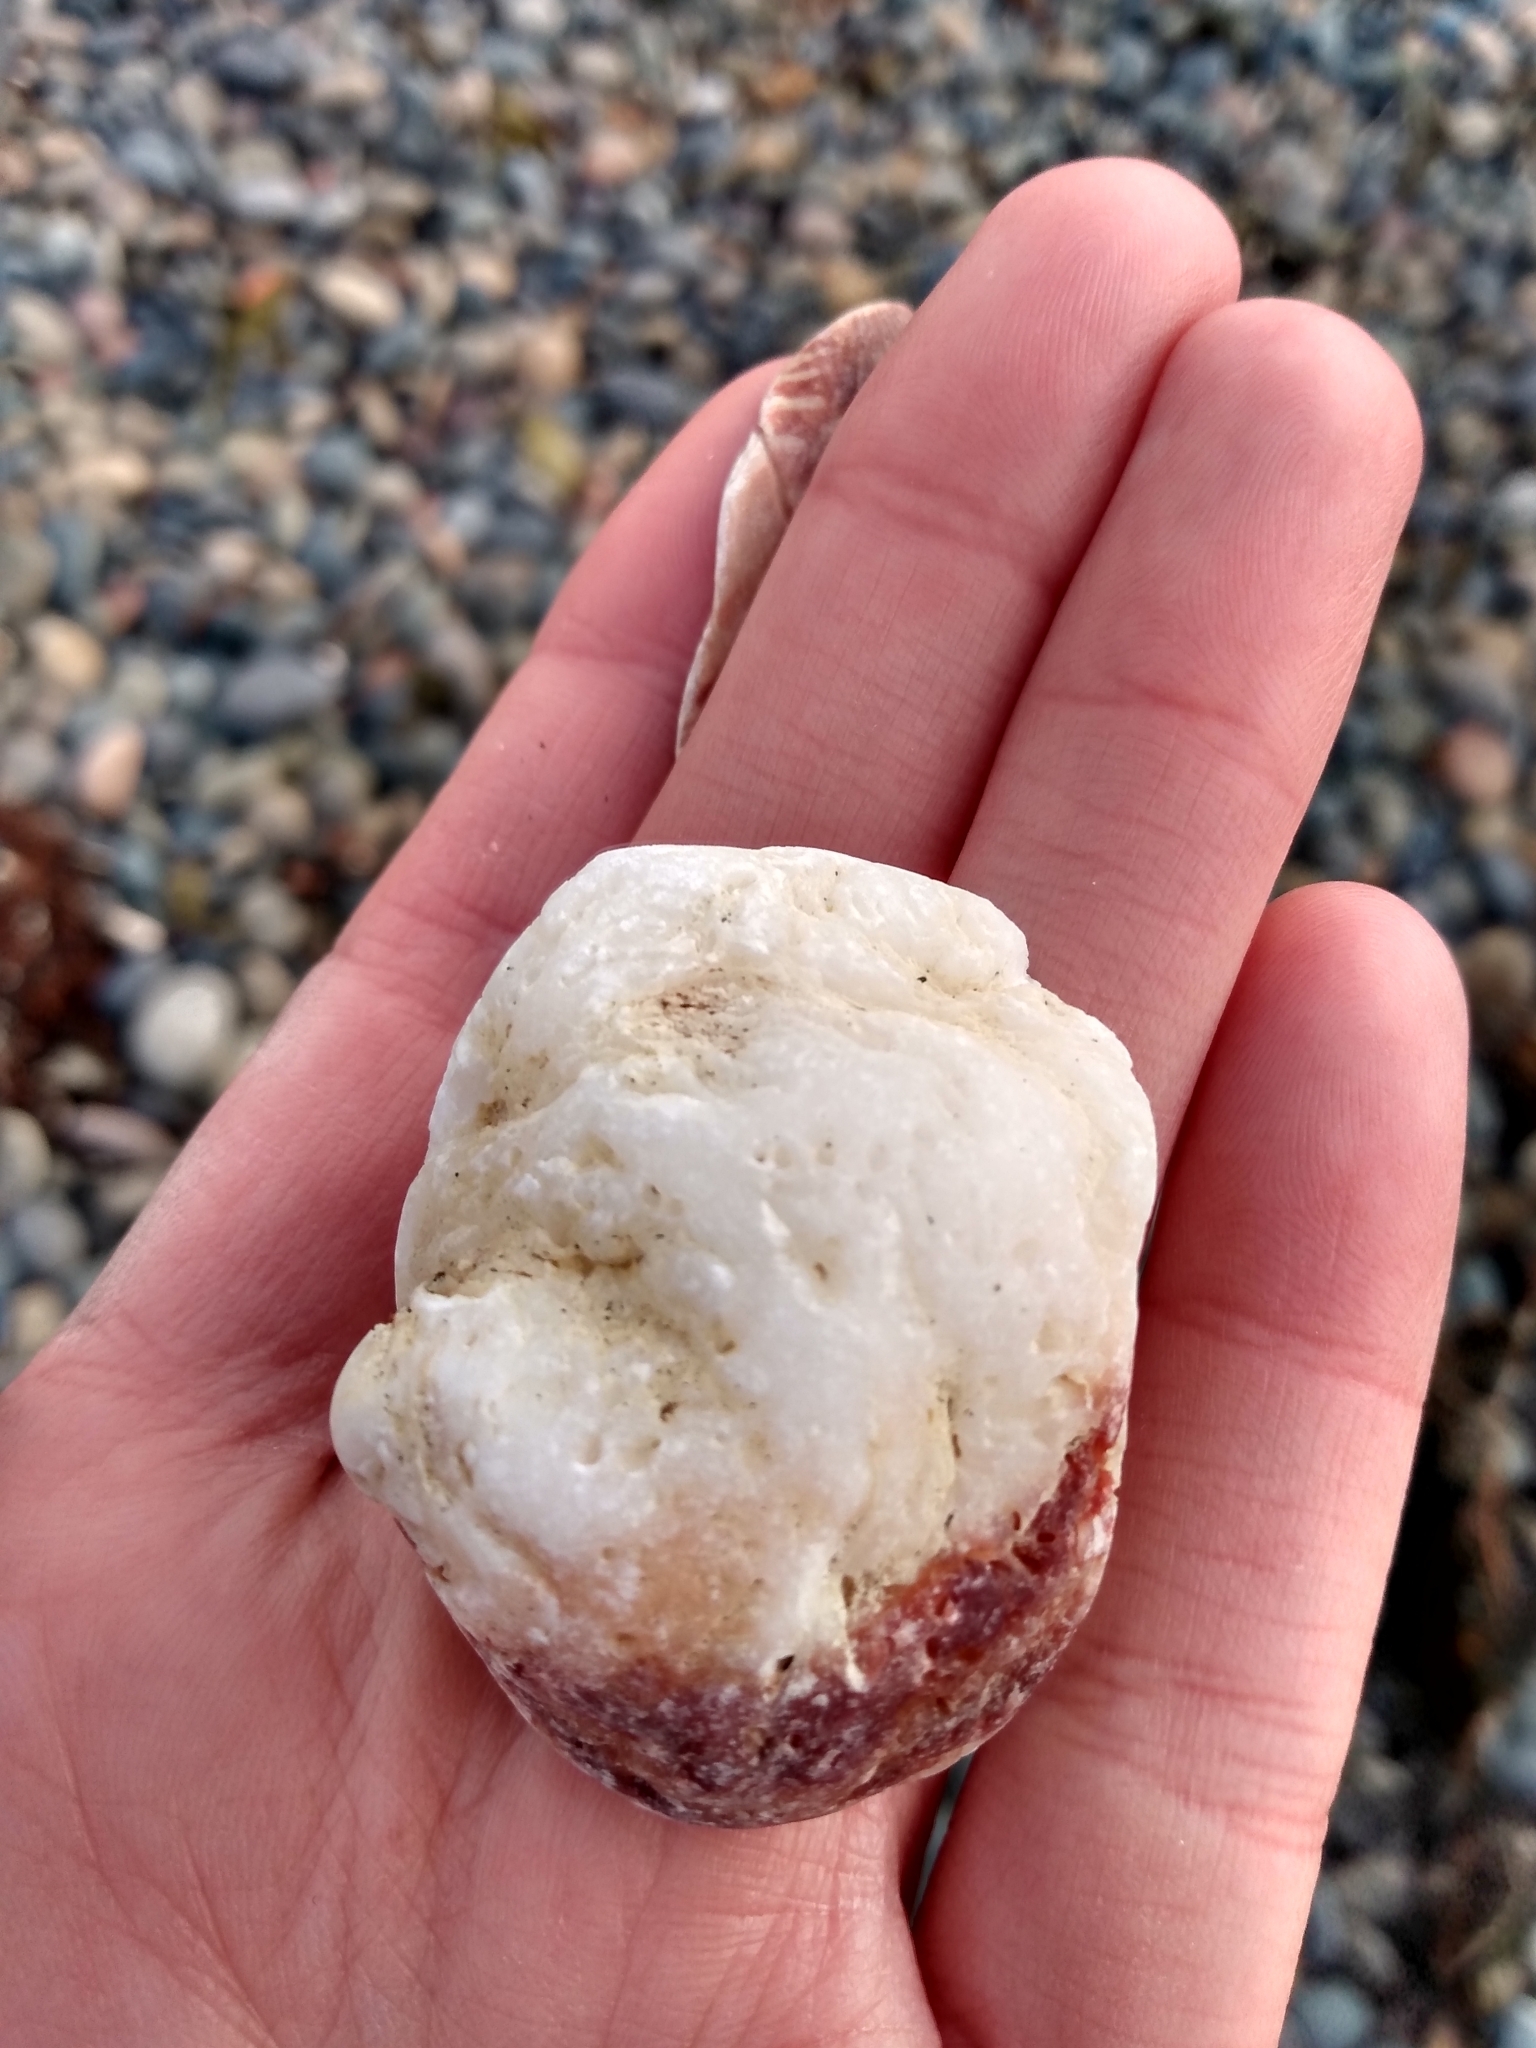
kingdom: Animalia
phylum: Mollusca
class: Bivalvia
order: Venerida
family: Chamidae
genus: Chama
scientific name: Chama arcana
